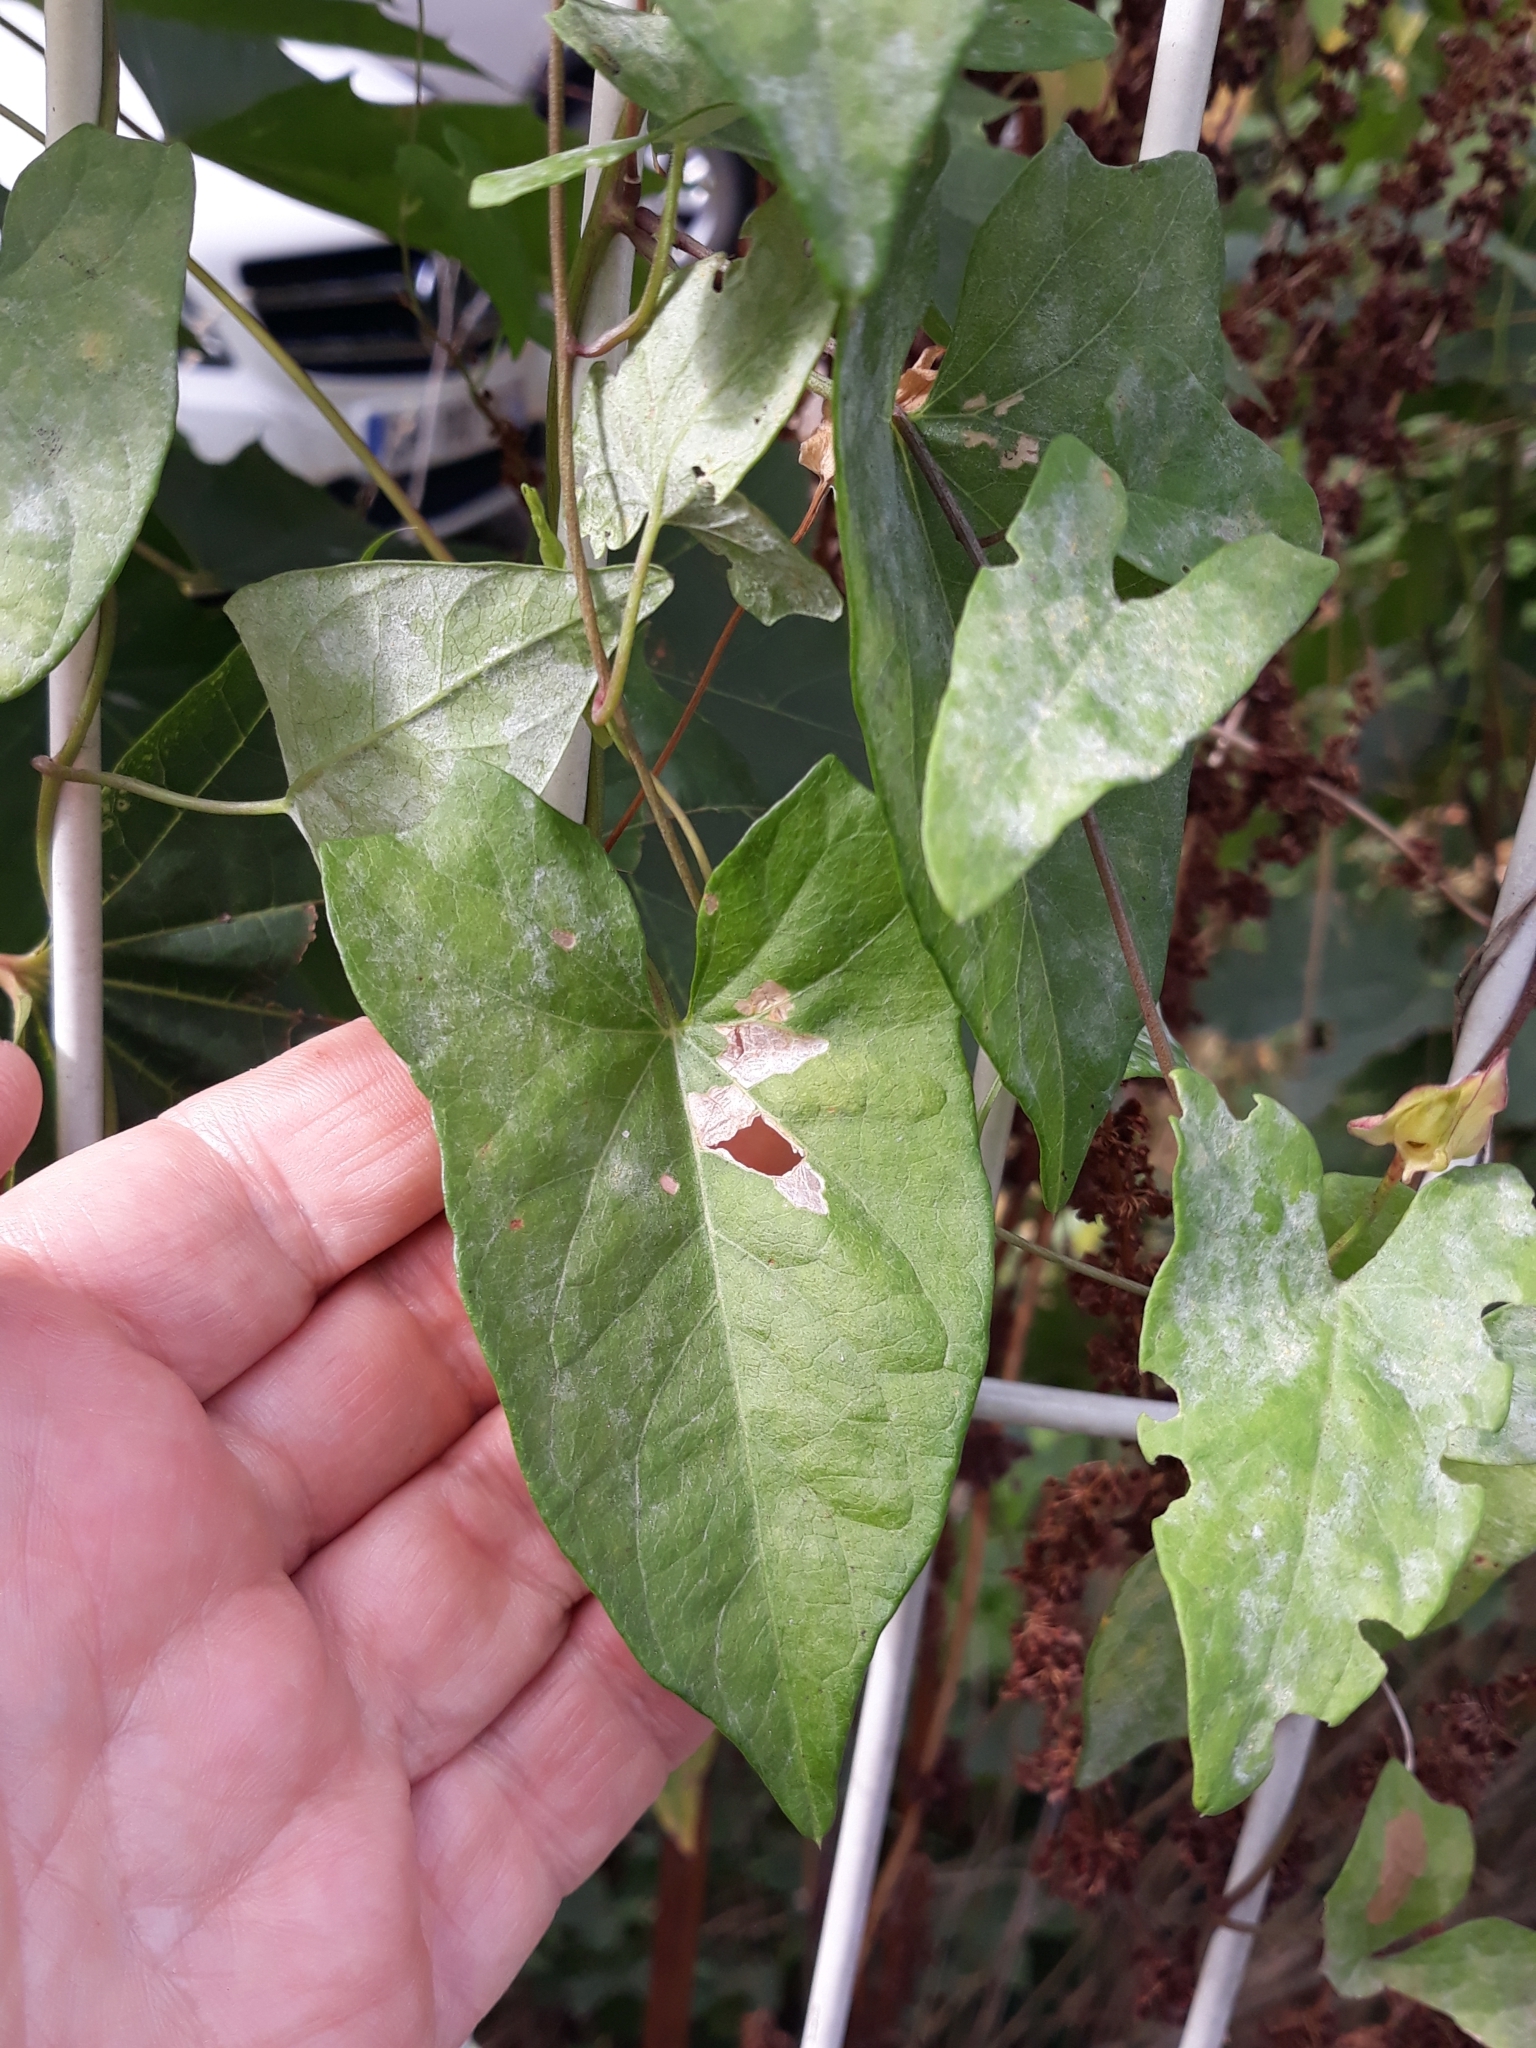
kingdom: Plantae
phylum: Tracheophyta
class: Magnoliopsida
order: Solanales
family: Convolvulaceae
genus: Calystegia
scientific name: Calystegia sepium
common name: Hedge bindweed
